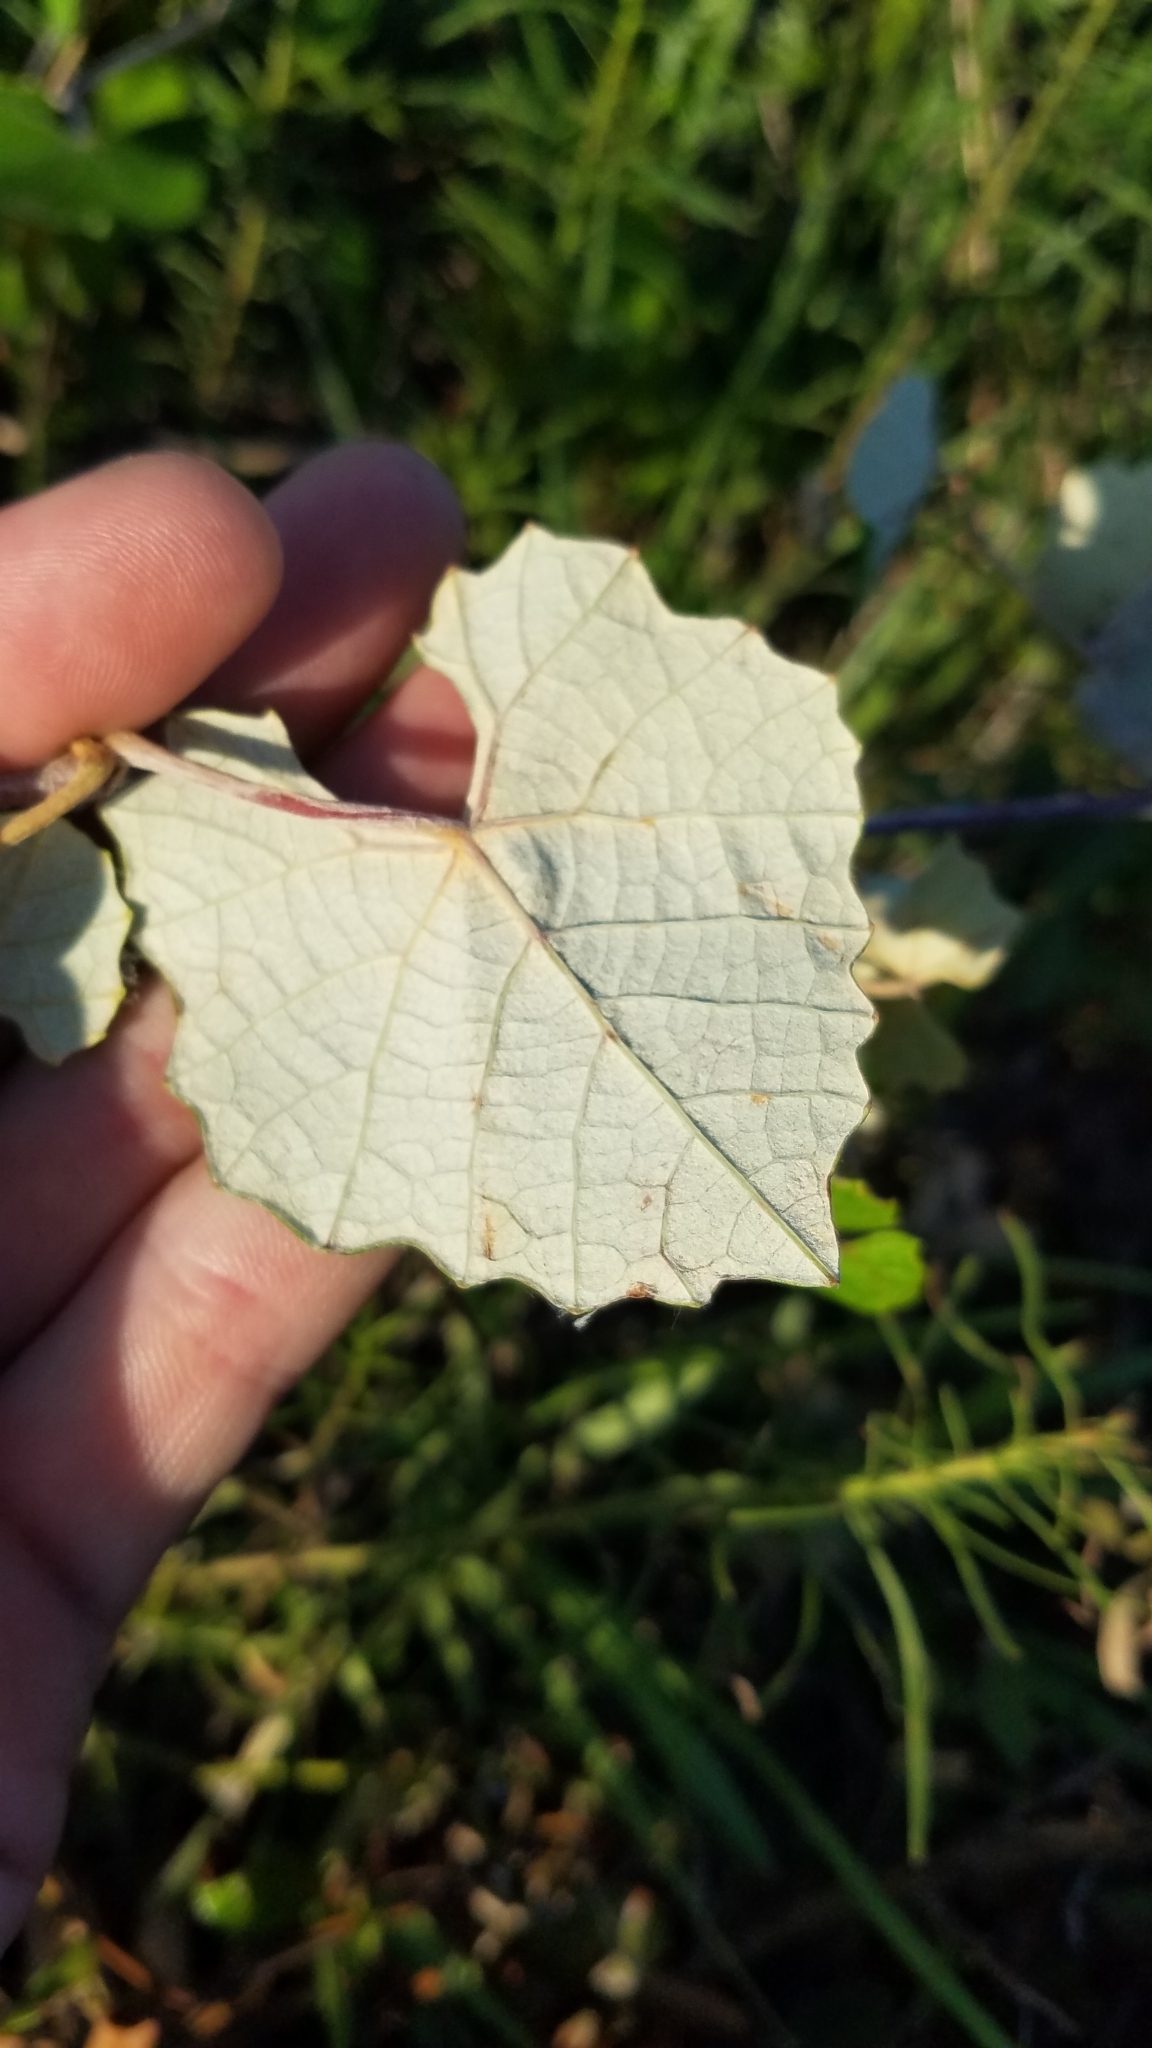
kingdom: Plantae
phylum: Tracheophyta
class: Magnoliopsida
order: Vitales
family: Vitaceae
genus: Vitis
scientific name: Vitis shuttleworthii
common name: Caloosa grape
